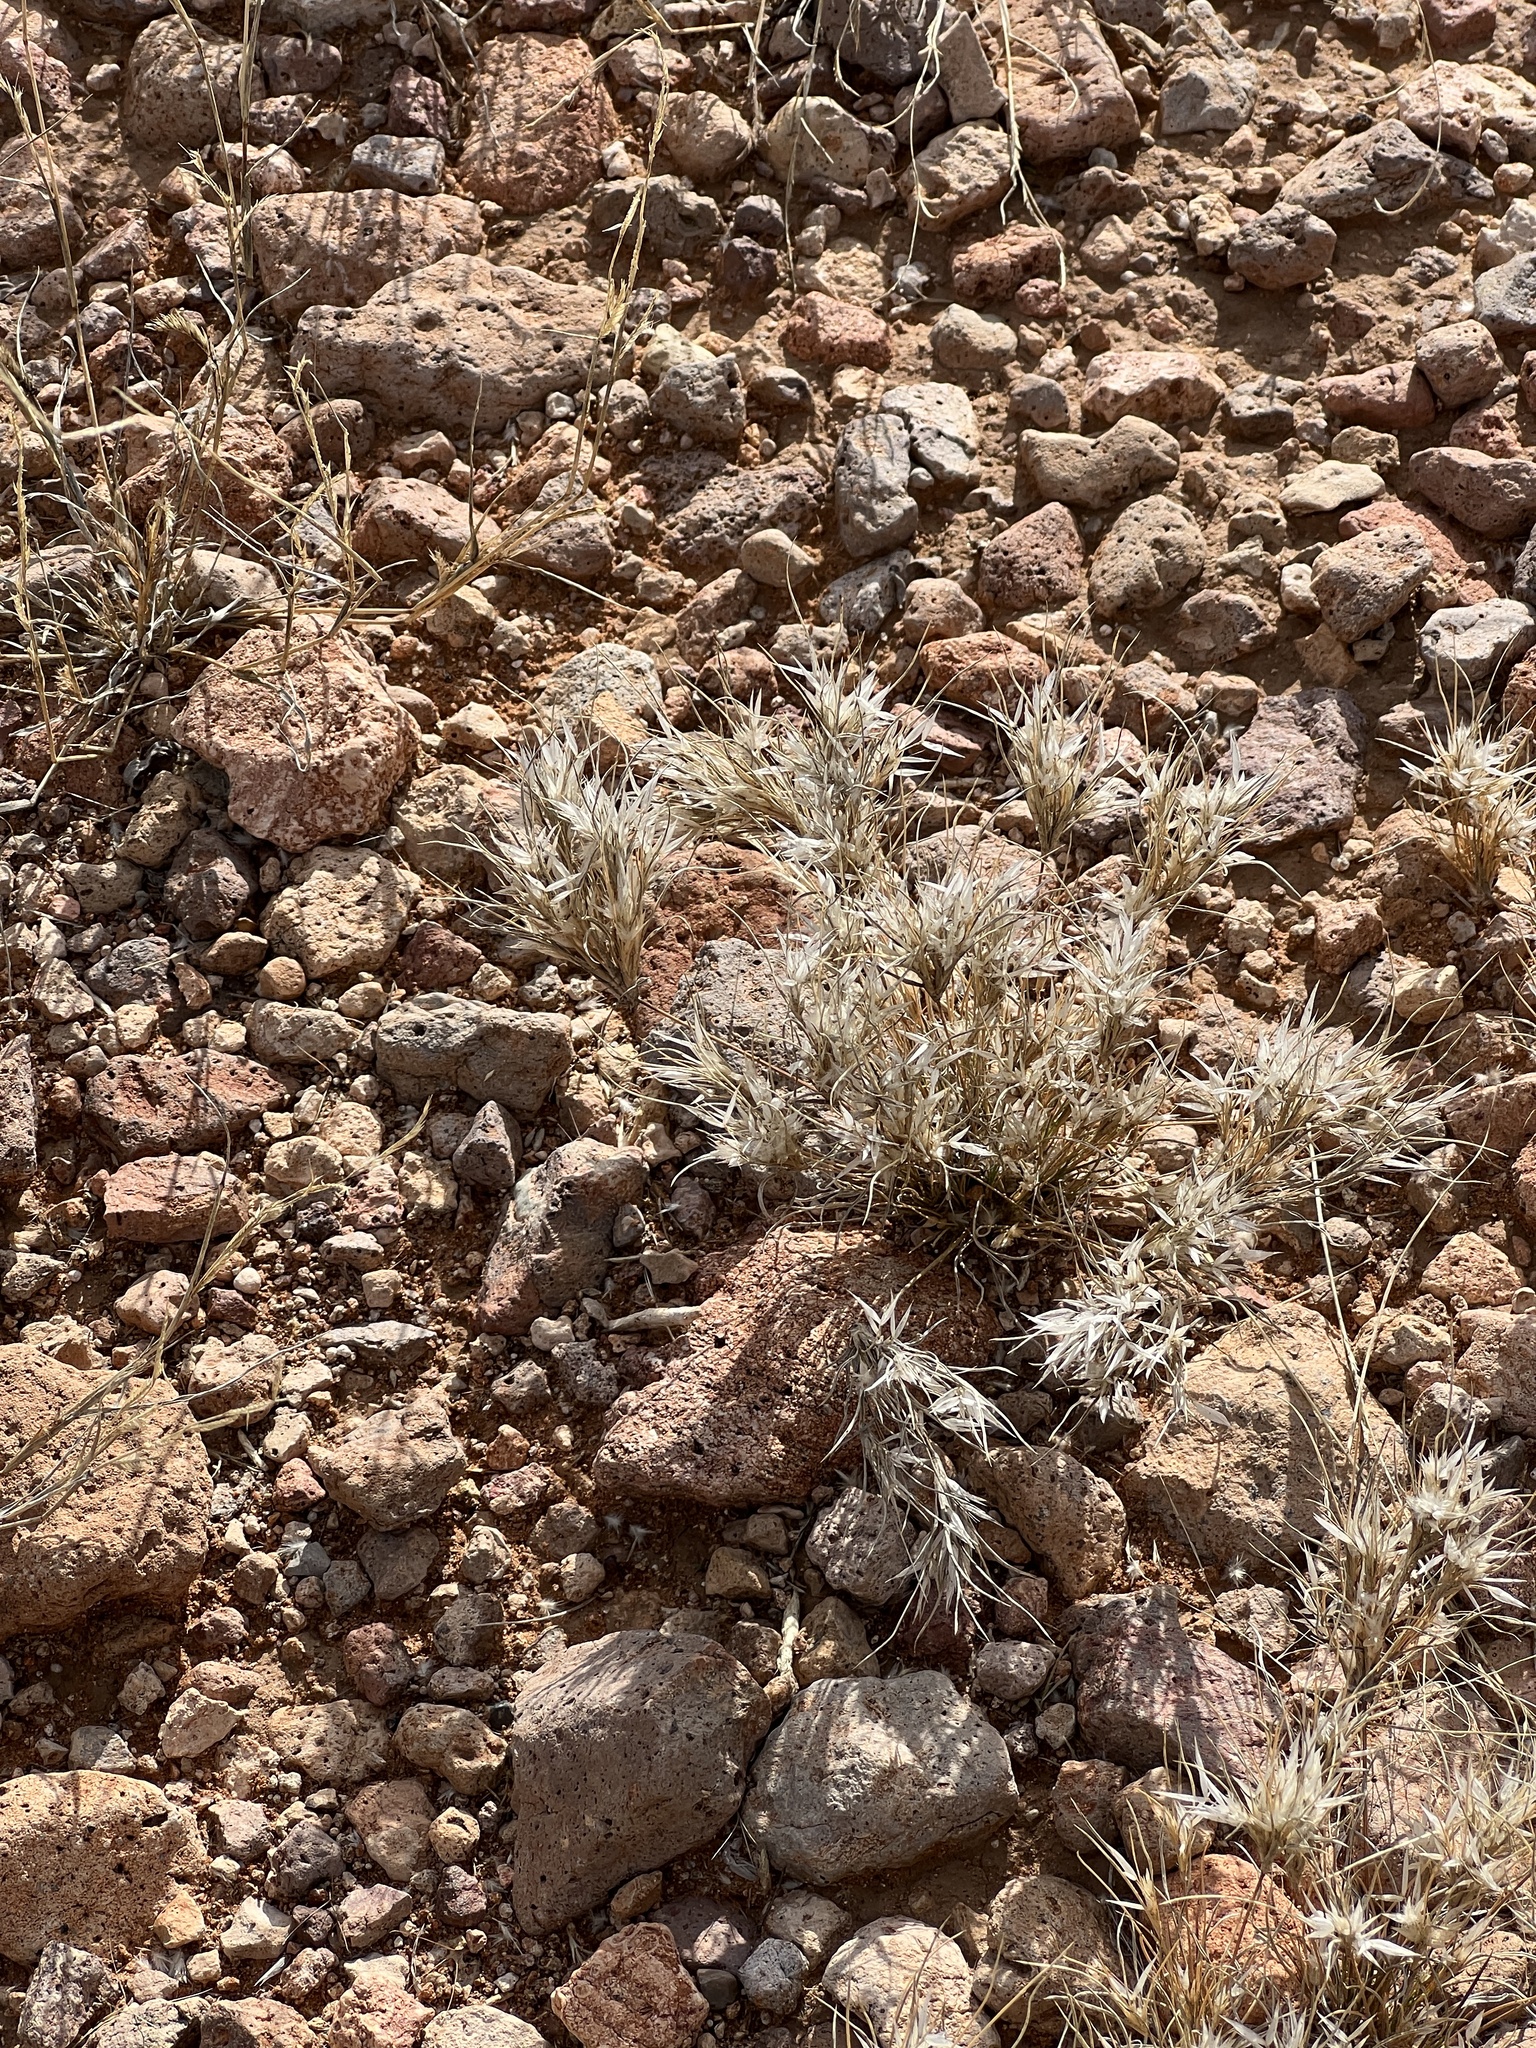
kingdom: Plantae
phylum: Tracheophyta
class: Liliopsida
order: Poales
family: Poaceae
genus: Dasyochloa
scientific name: Dasyochloa pulchella
